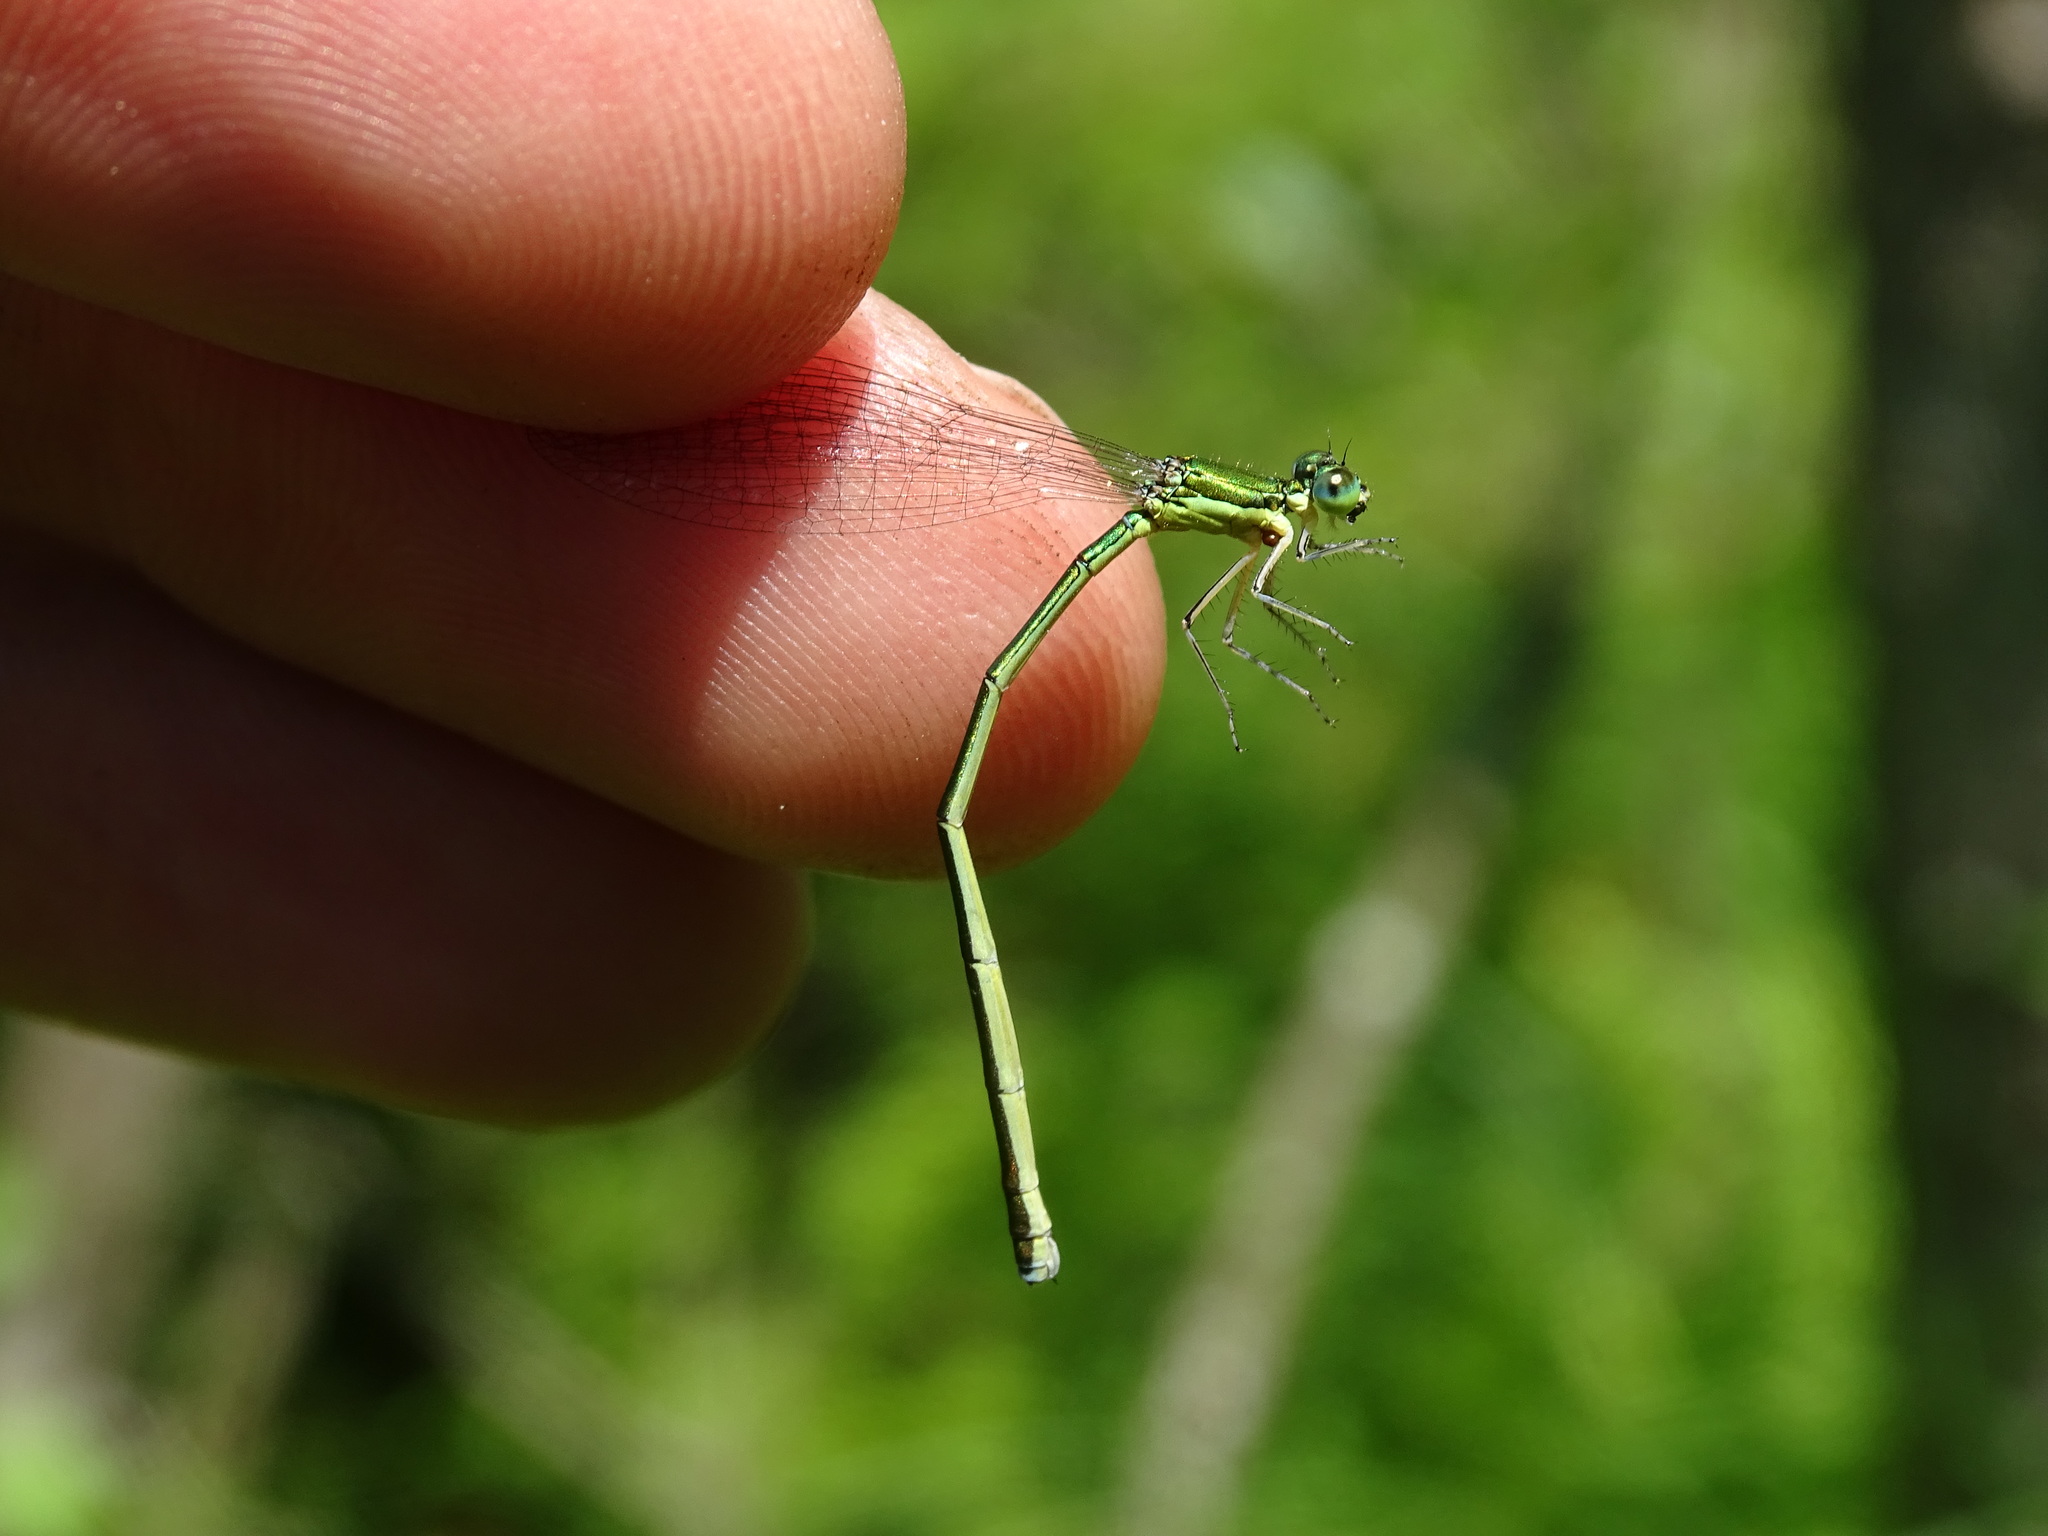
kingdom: Animalia
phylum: Arthropoda
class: Insecta
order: Odonata
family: Coenagrionidae
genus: Nehalennia
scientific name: Nehalennia irene
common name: Sedge sprite
